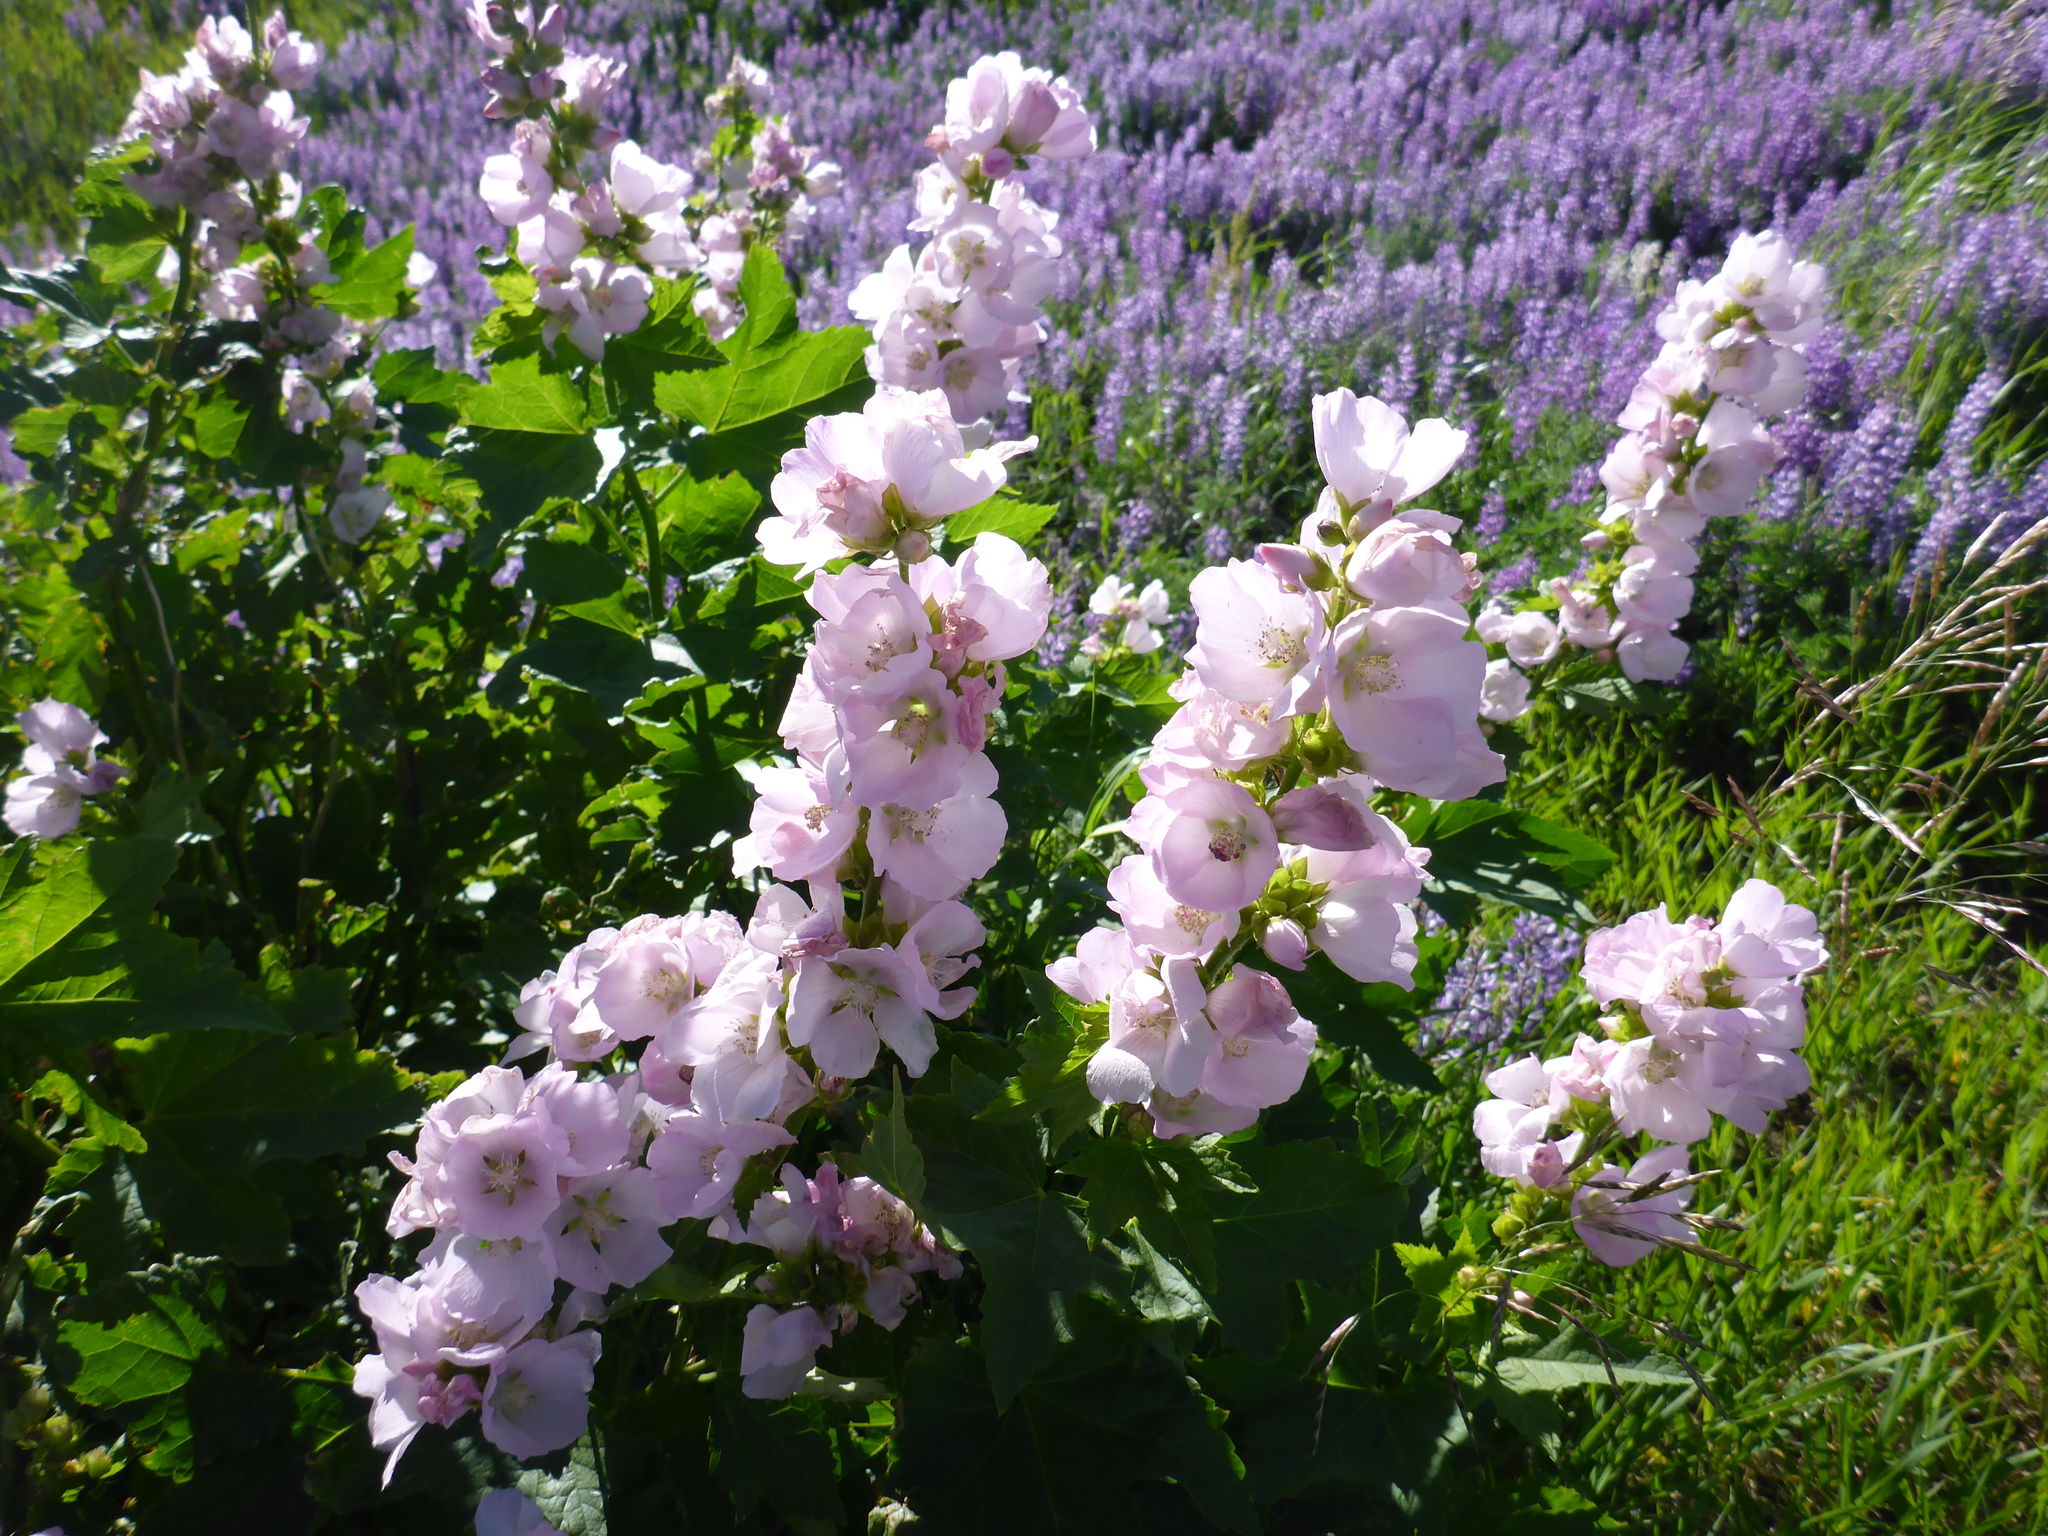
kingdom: Plantae
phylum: Tracheophyta
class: Magnoliopsida
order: Malvales
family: Malvaceae
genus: Iliamna
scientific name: Iliamna rivularis
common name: Wild hollyhock
